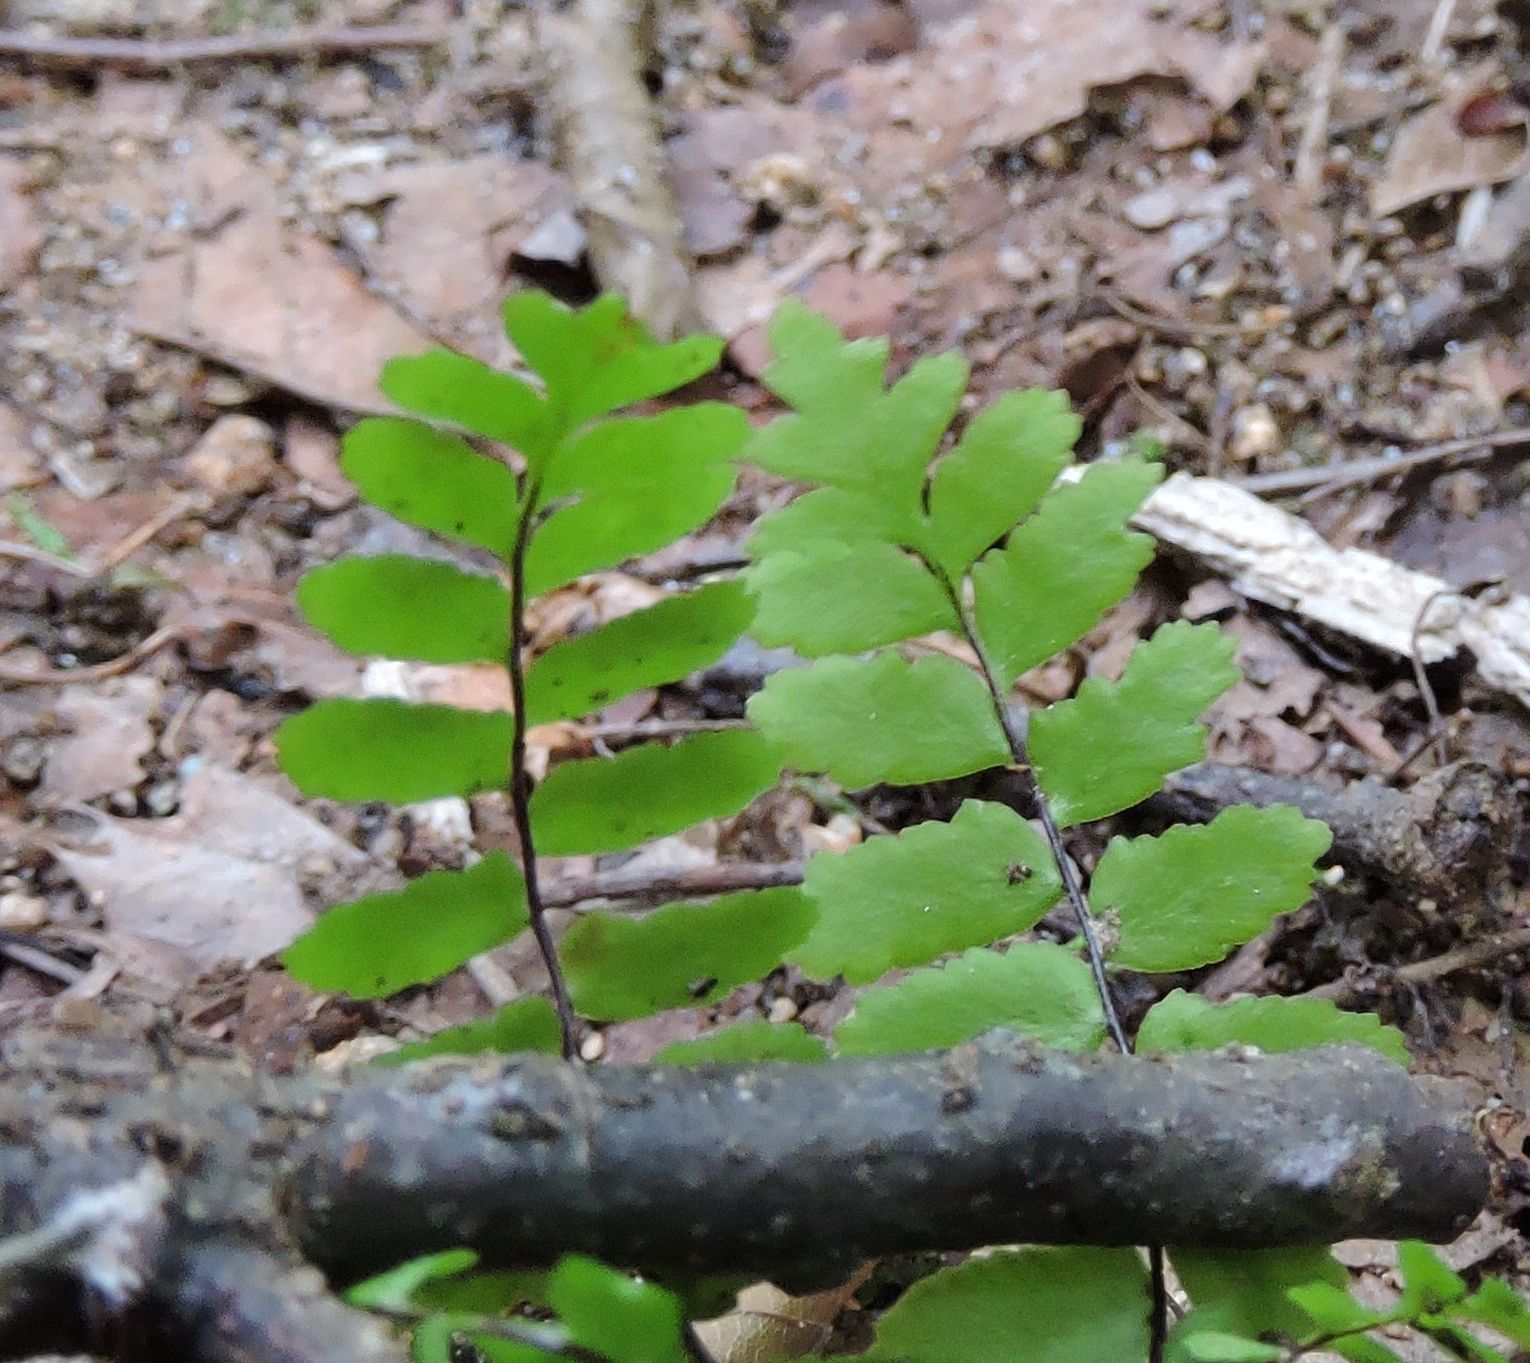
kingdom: Plantae
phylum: Tracheophyta
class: Polypodiopsida
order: Polypodiales
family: Aspleniaceae
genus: Asplenium
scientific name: Asplenium platyneuron
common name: Ebony spleenwort
